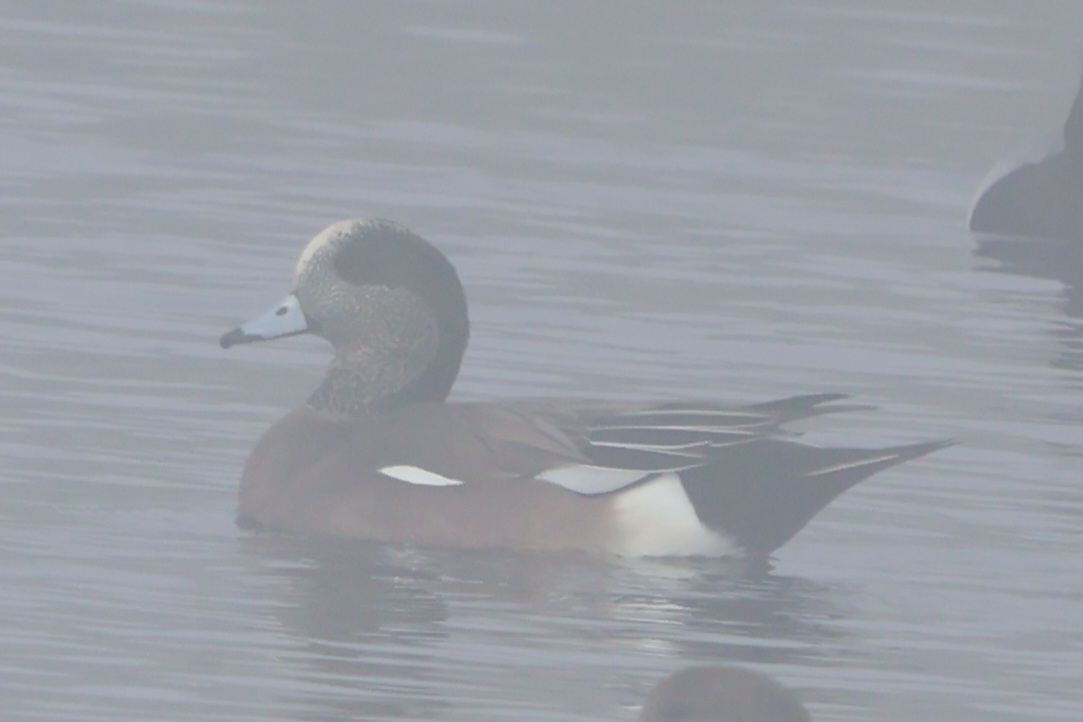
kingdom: Animalia
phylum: Chordata
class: Aves
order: Anseriformes
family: Anatidae
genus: Mareca
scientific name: Mareca americana
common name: American wigeon
